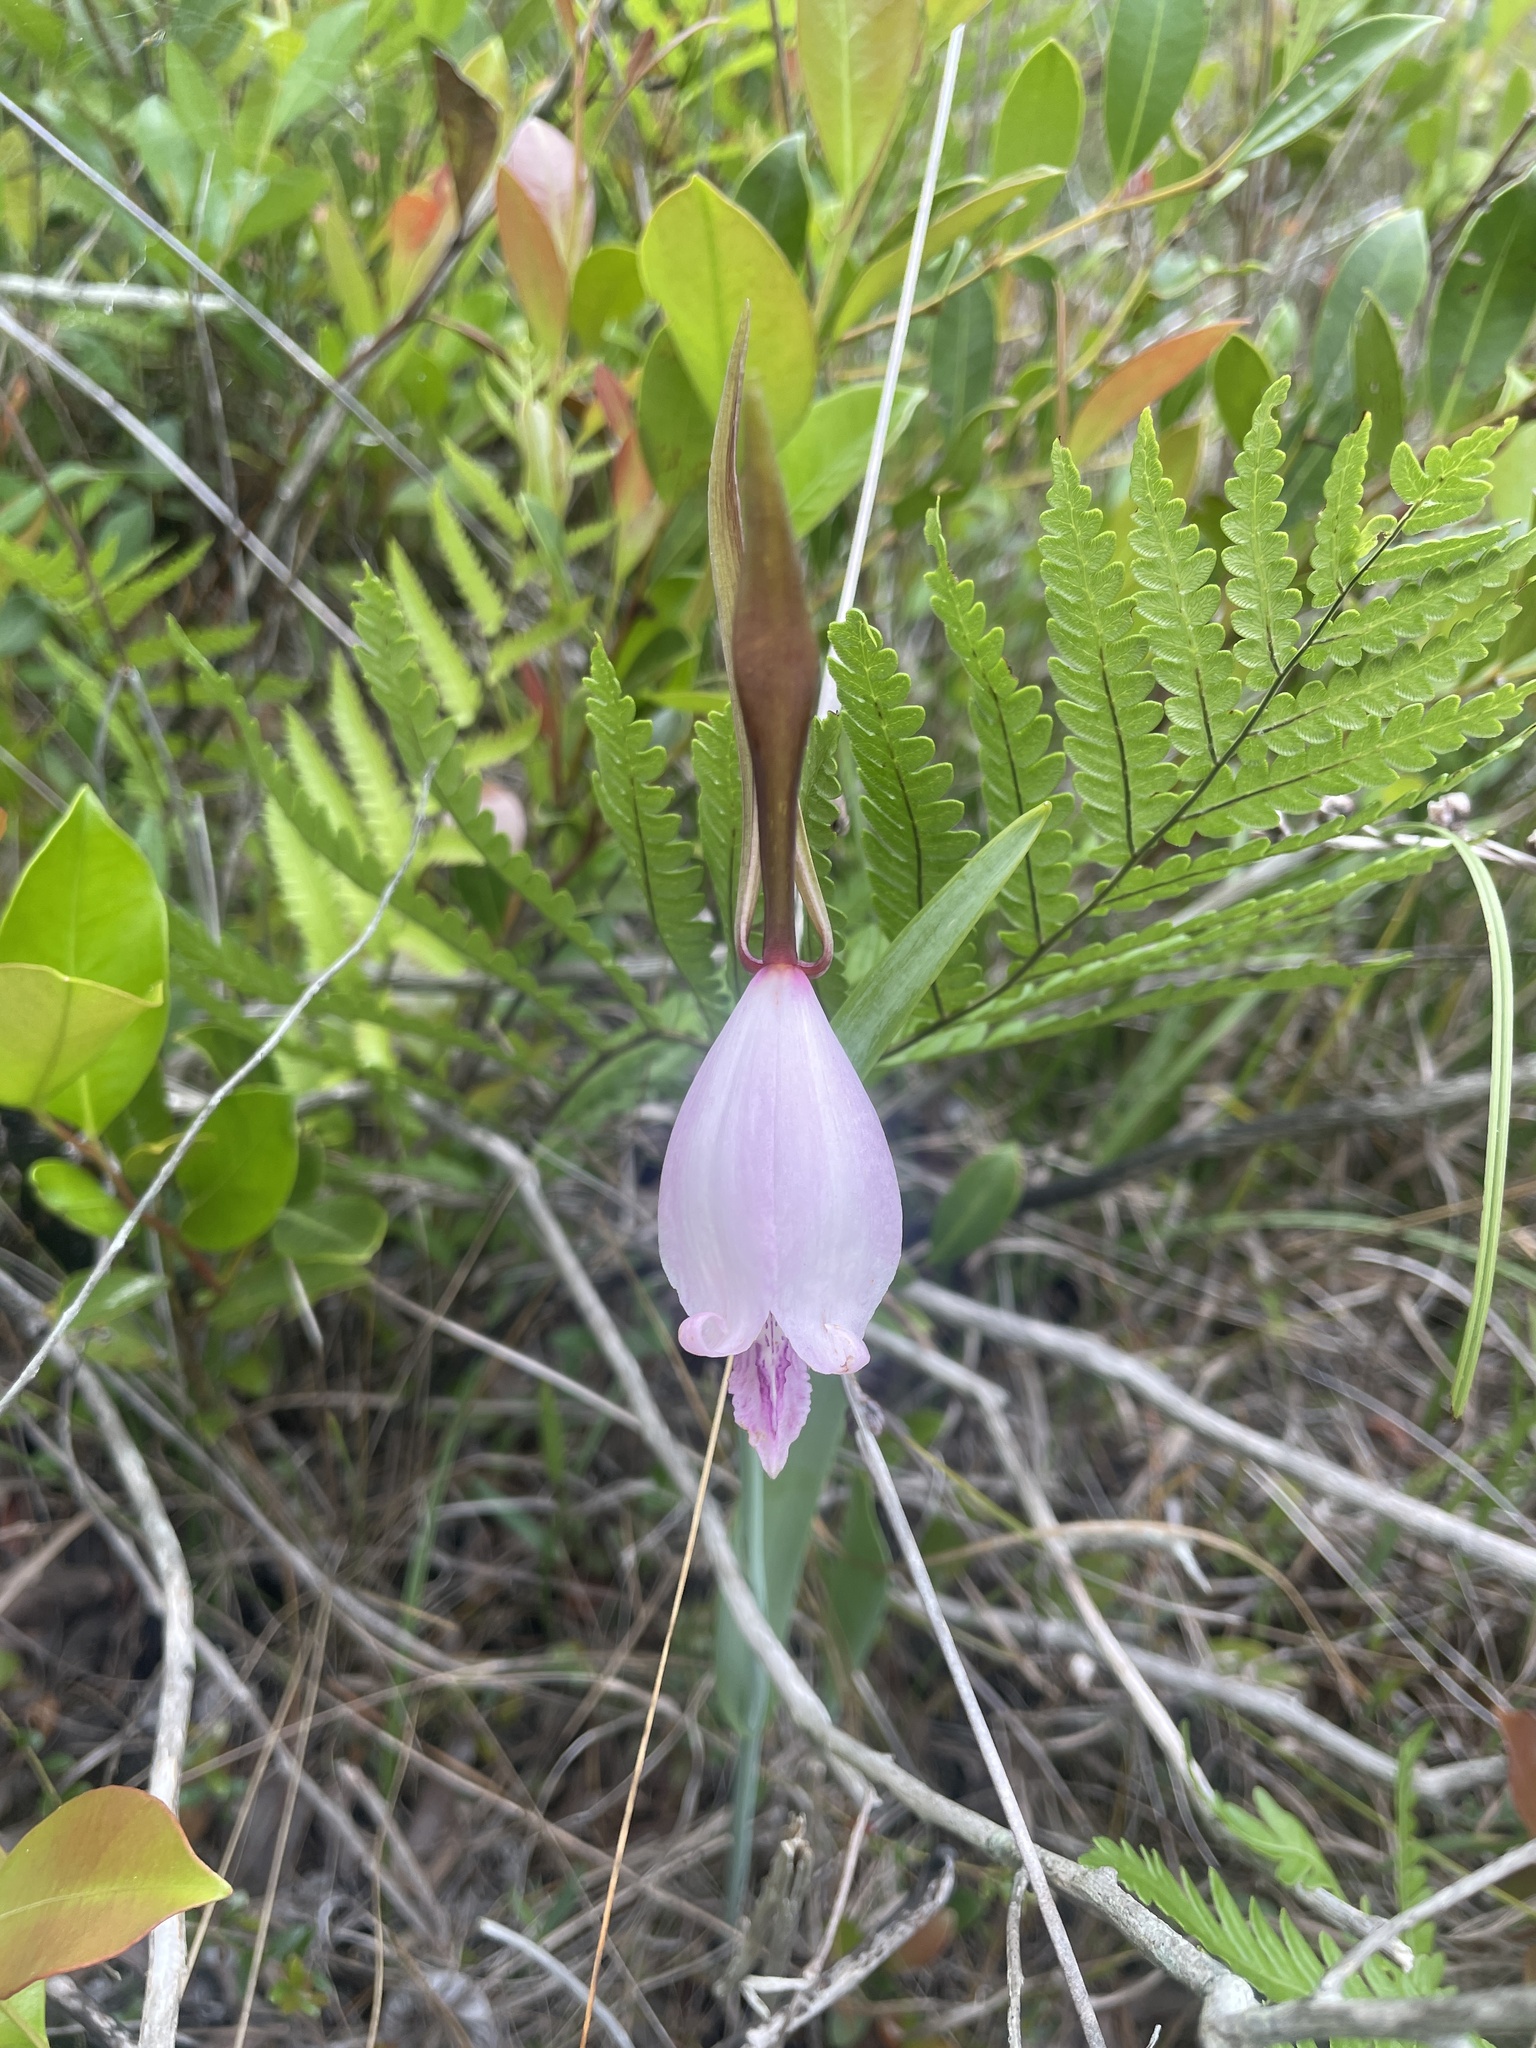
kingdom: Plantae
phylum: Tracheophyta
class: Liliopsida
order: Asparagales
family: Orchidaceae
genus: Cleistesiopsis
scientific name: Cleistesiopsis divaricata
